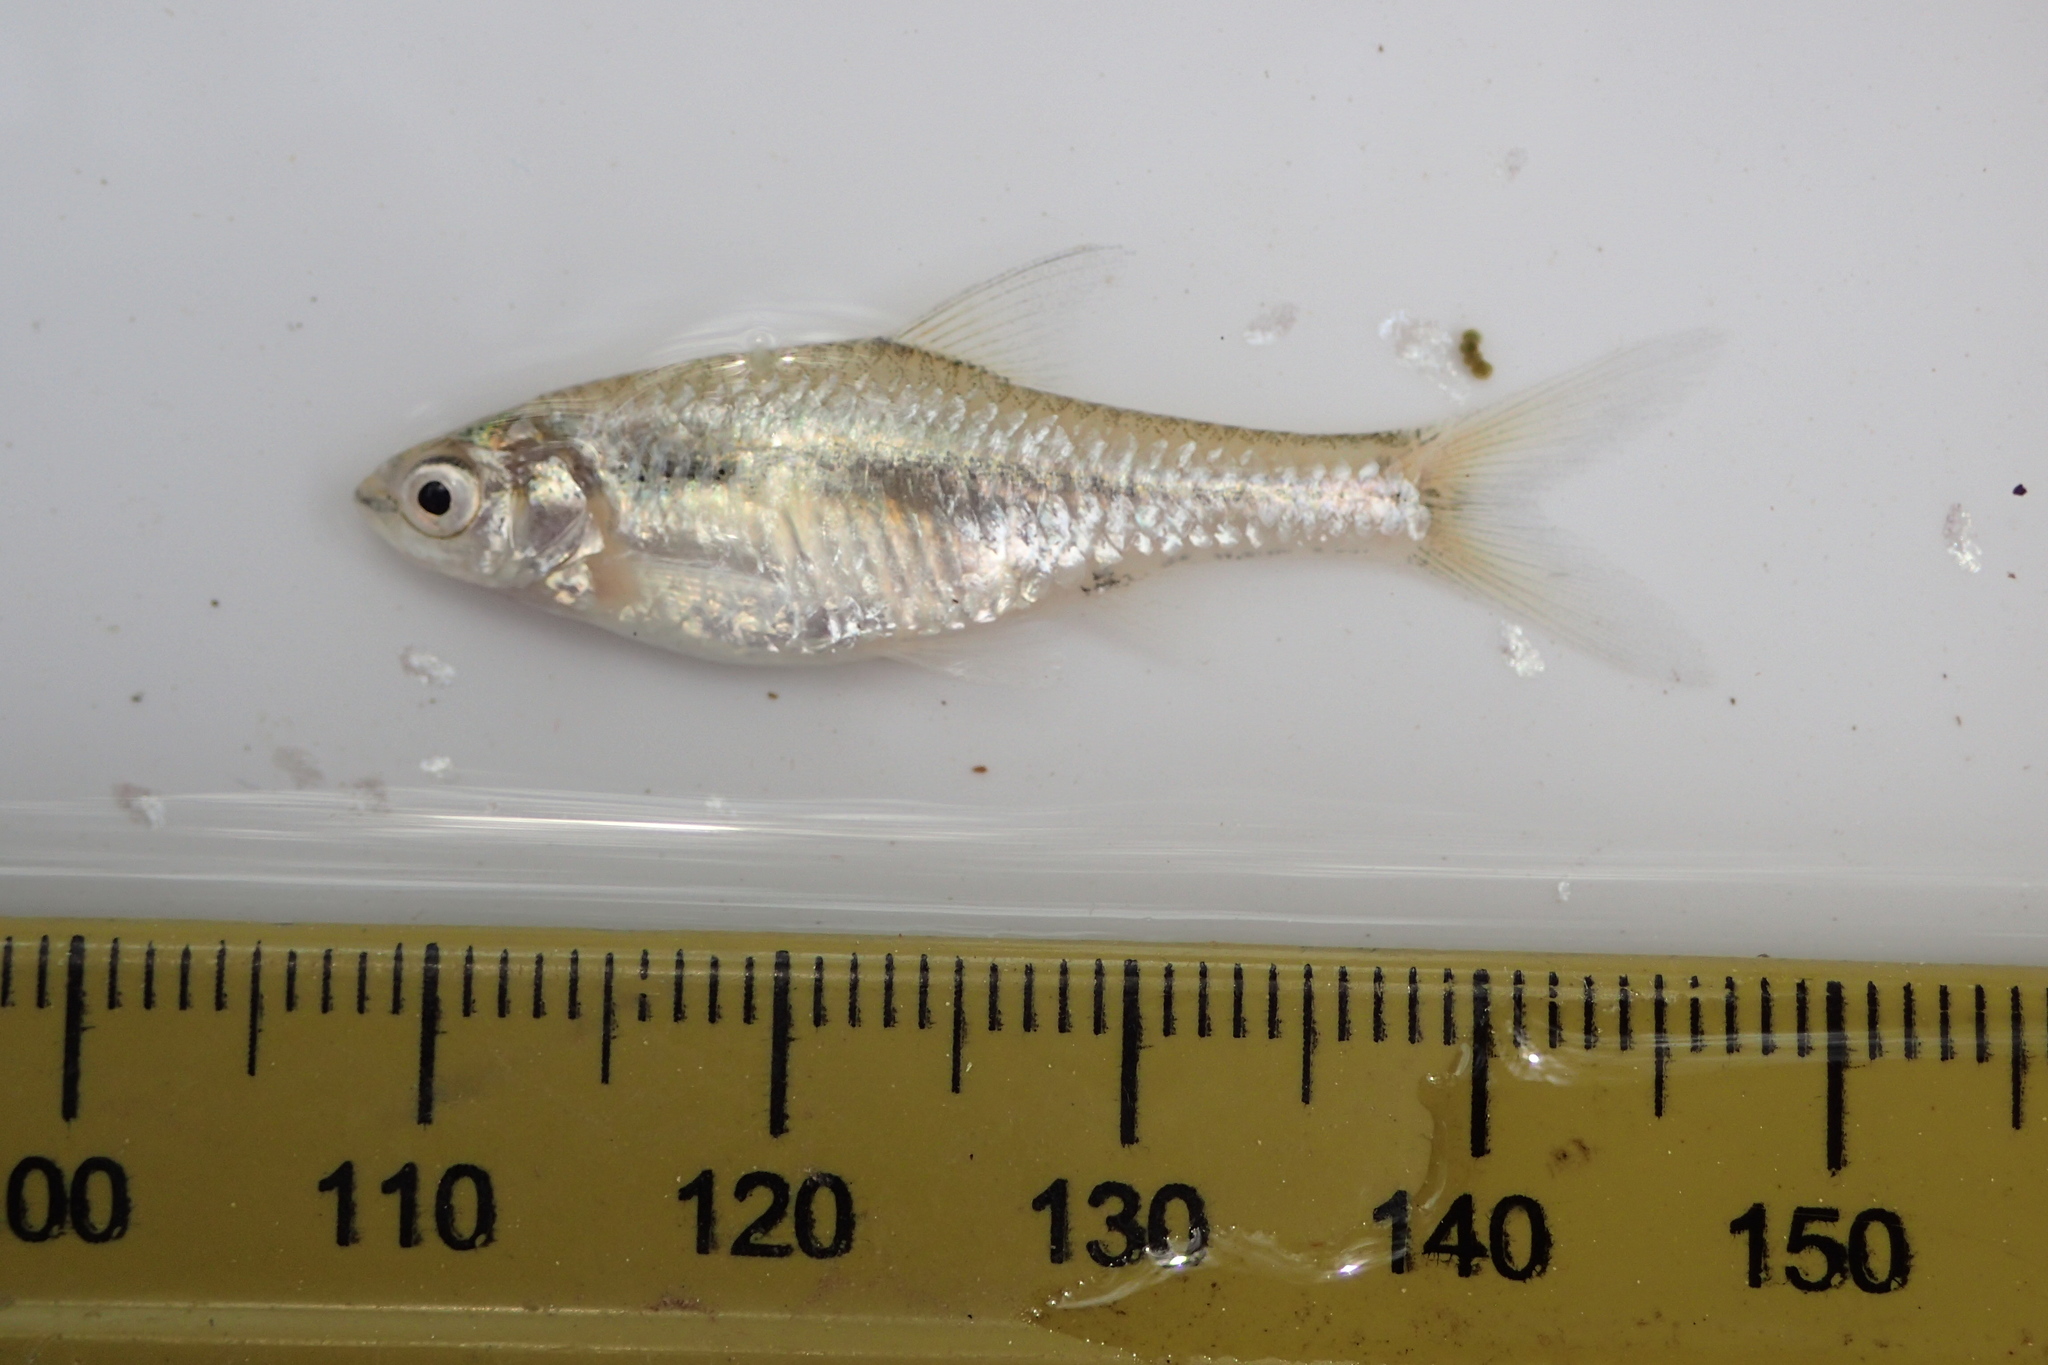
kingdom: Animalia
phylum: Chordata
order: Cypriniformes
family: Cyprinidae
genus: Enteromius
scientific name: Enteromius toppini
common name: East coast barb
